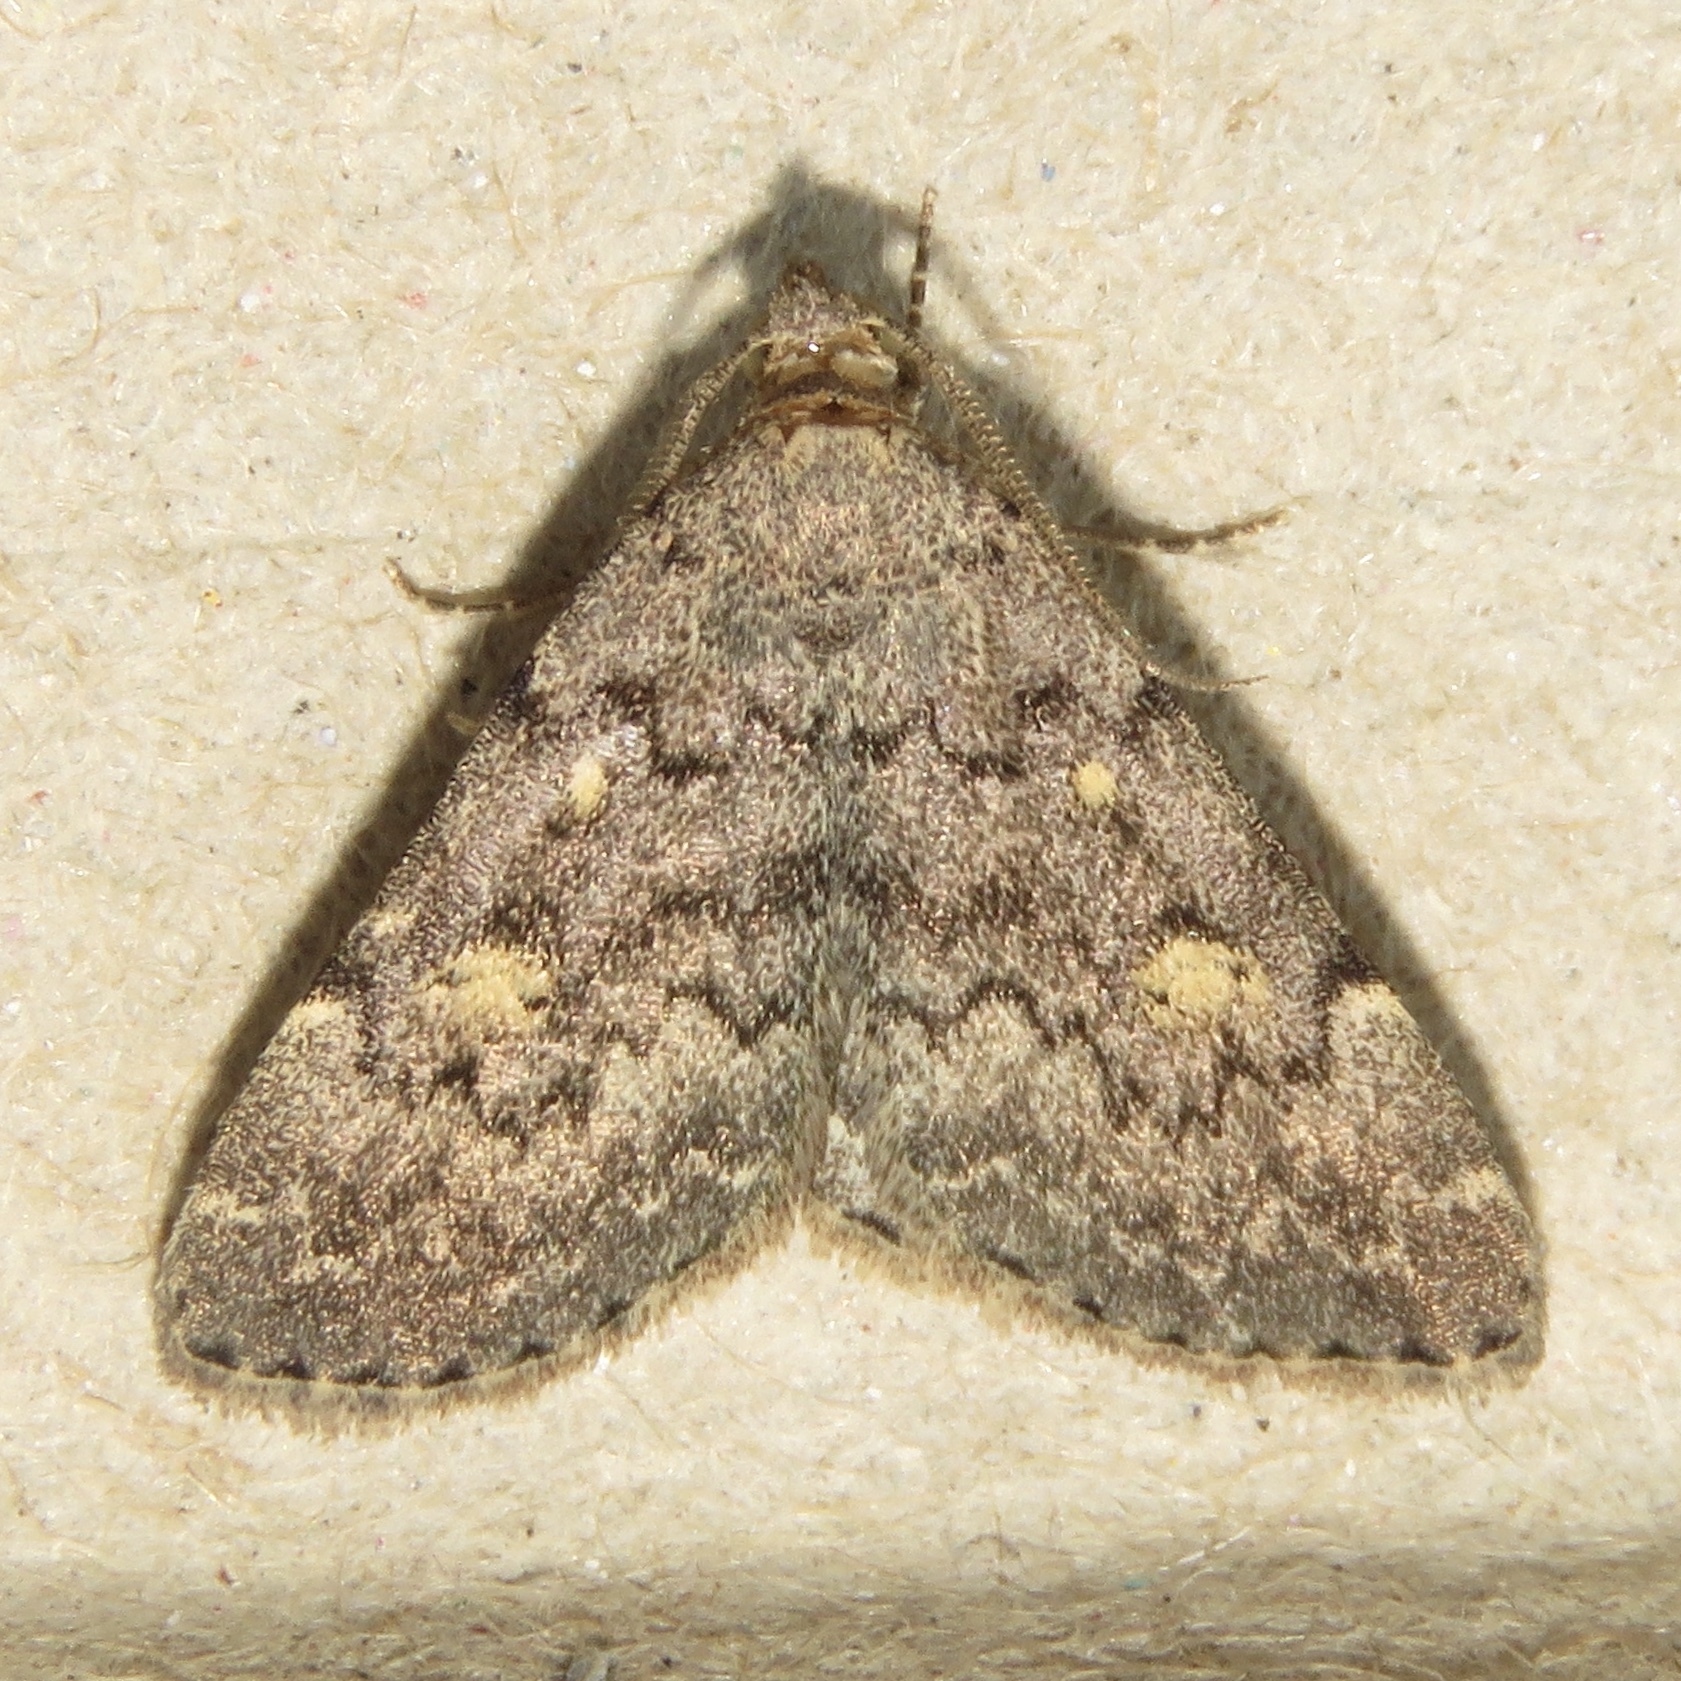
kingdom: Animalia
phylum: Arthropoda
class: Insecta
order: Lepidoptera
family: Erebidae
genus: Idia
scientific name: Idia aemula
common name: Common idia moth
